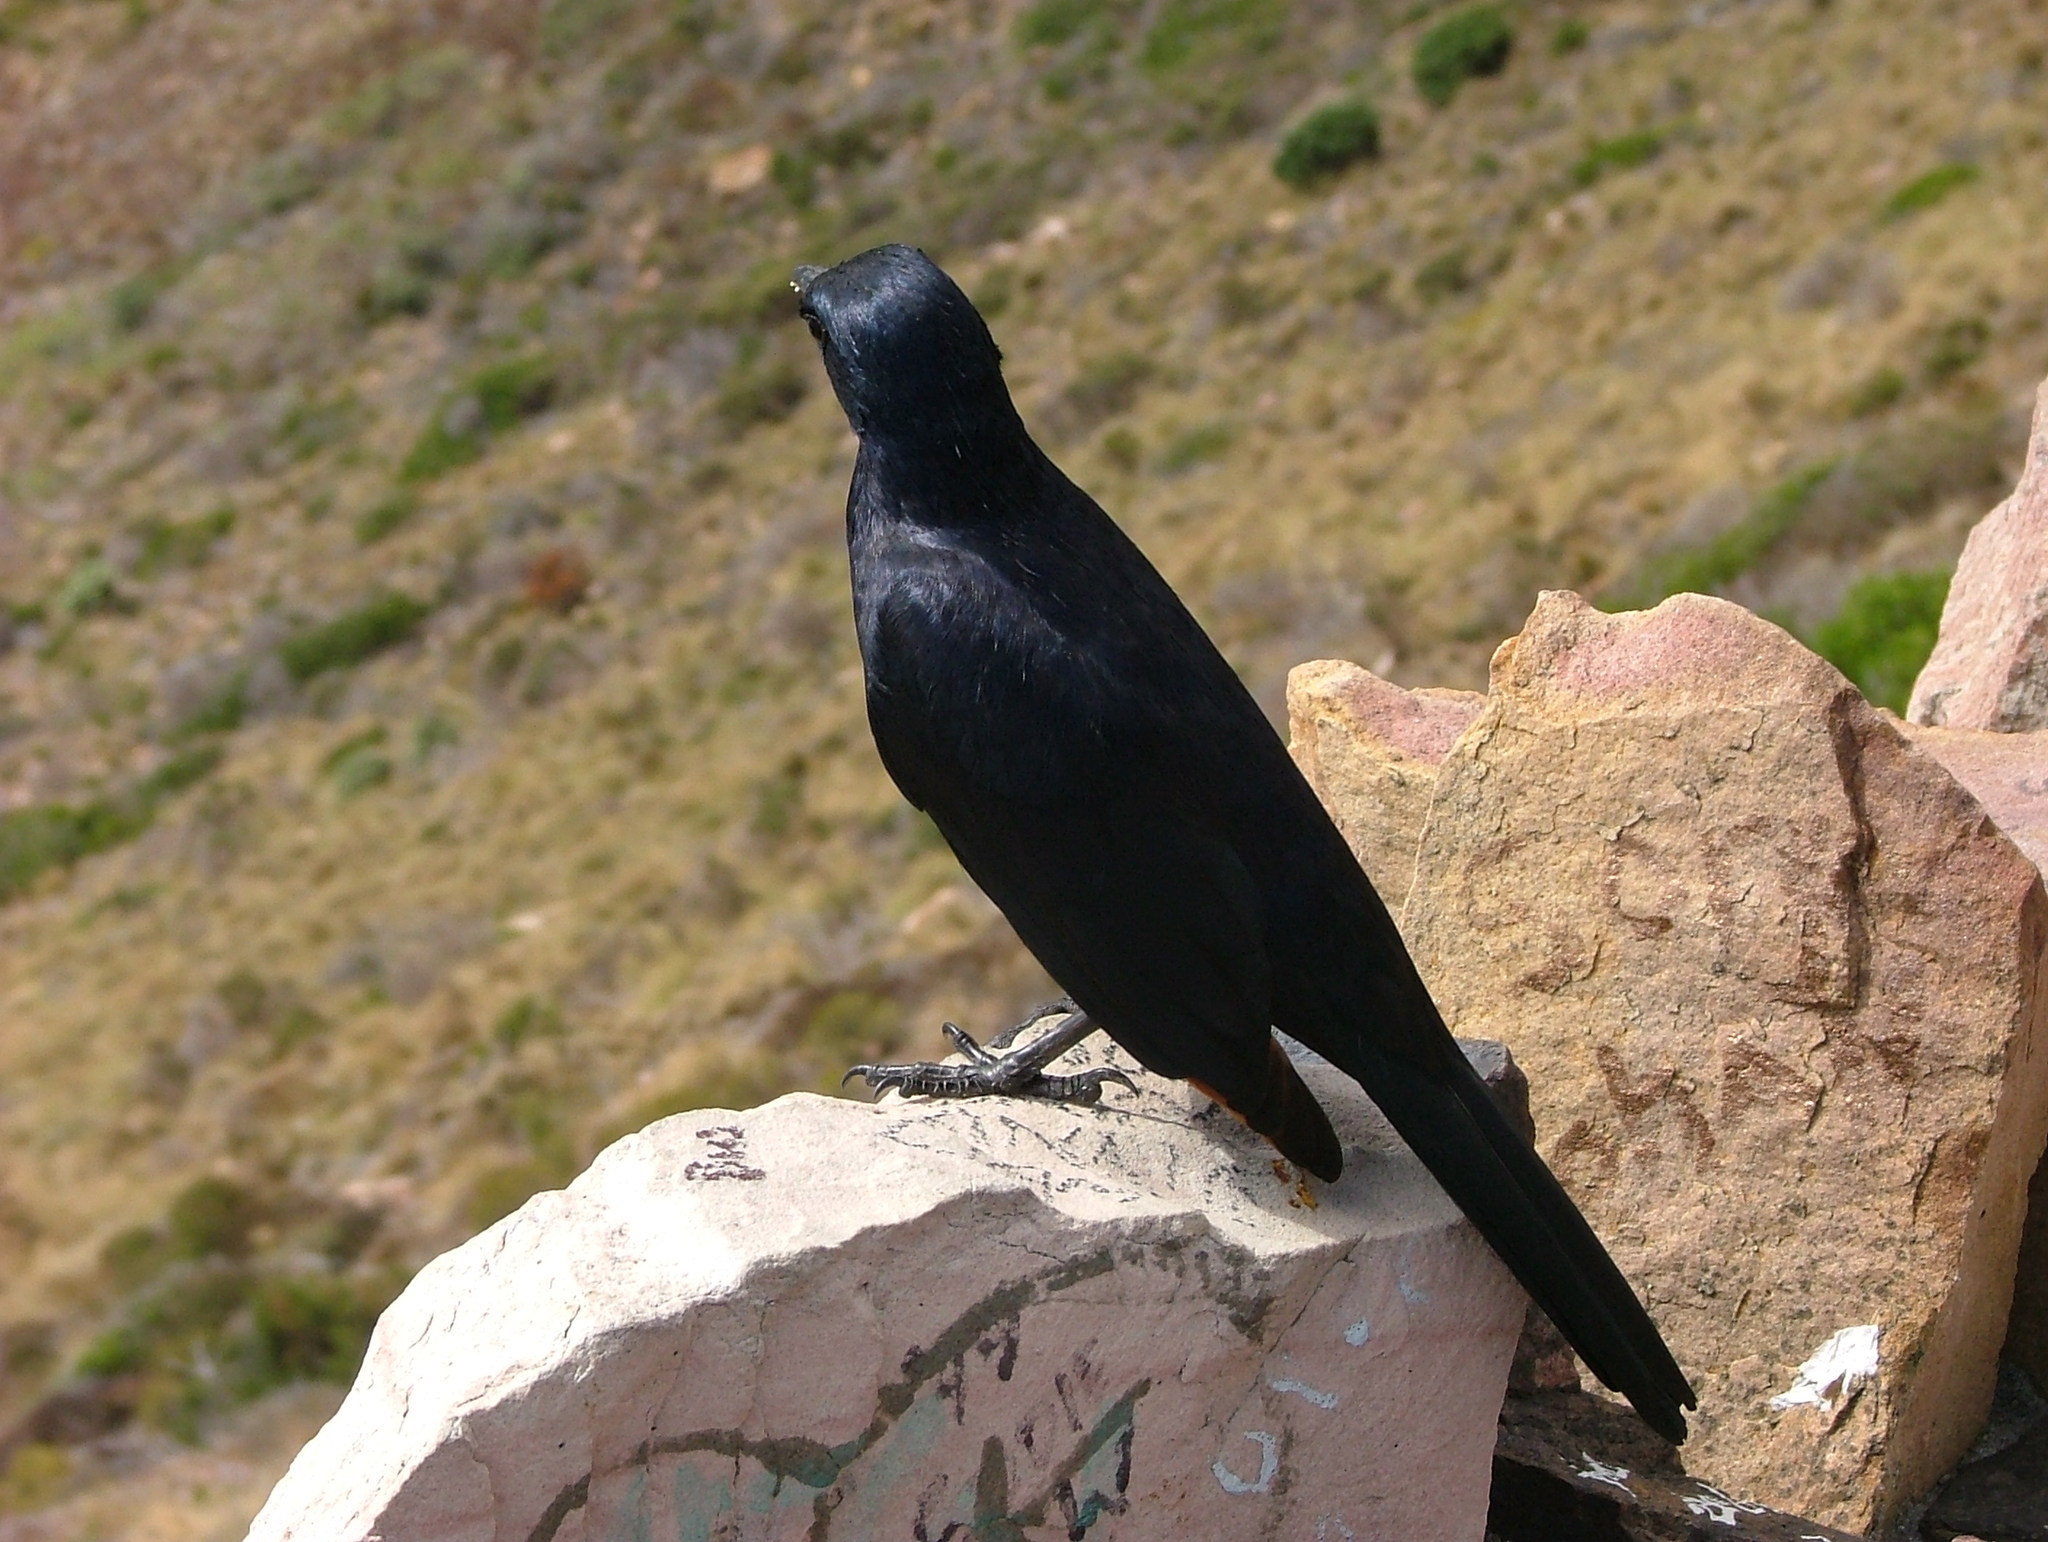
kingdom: Animalia
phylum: Chordata
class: Aves
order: Passeriformes
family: Sturnidae
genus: Onychognathus
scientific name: Onychognathus morio
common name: Red-winged starling
